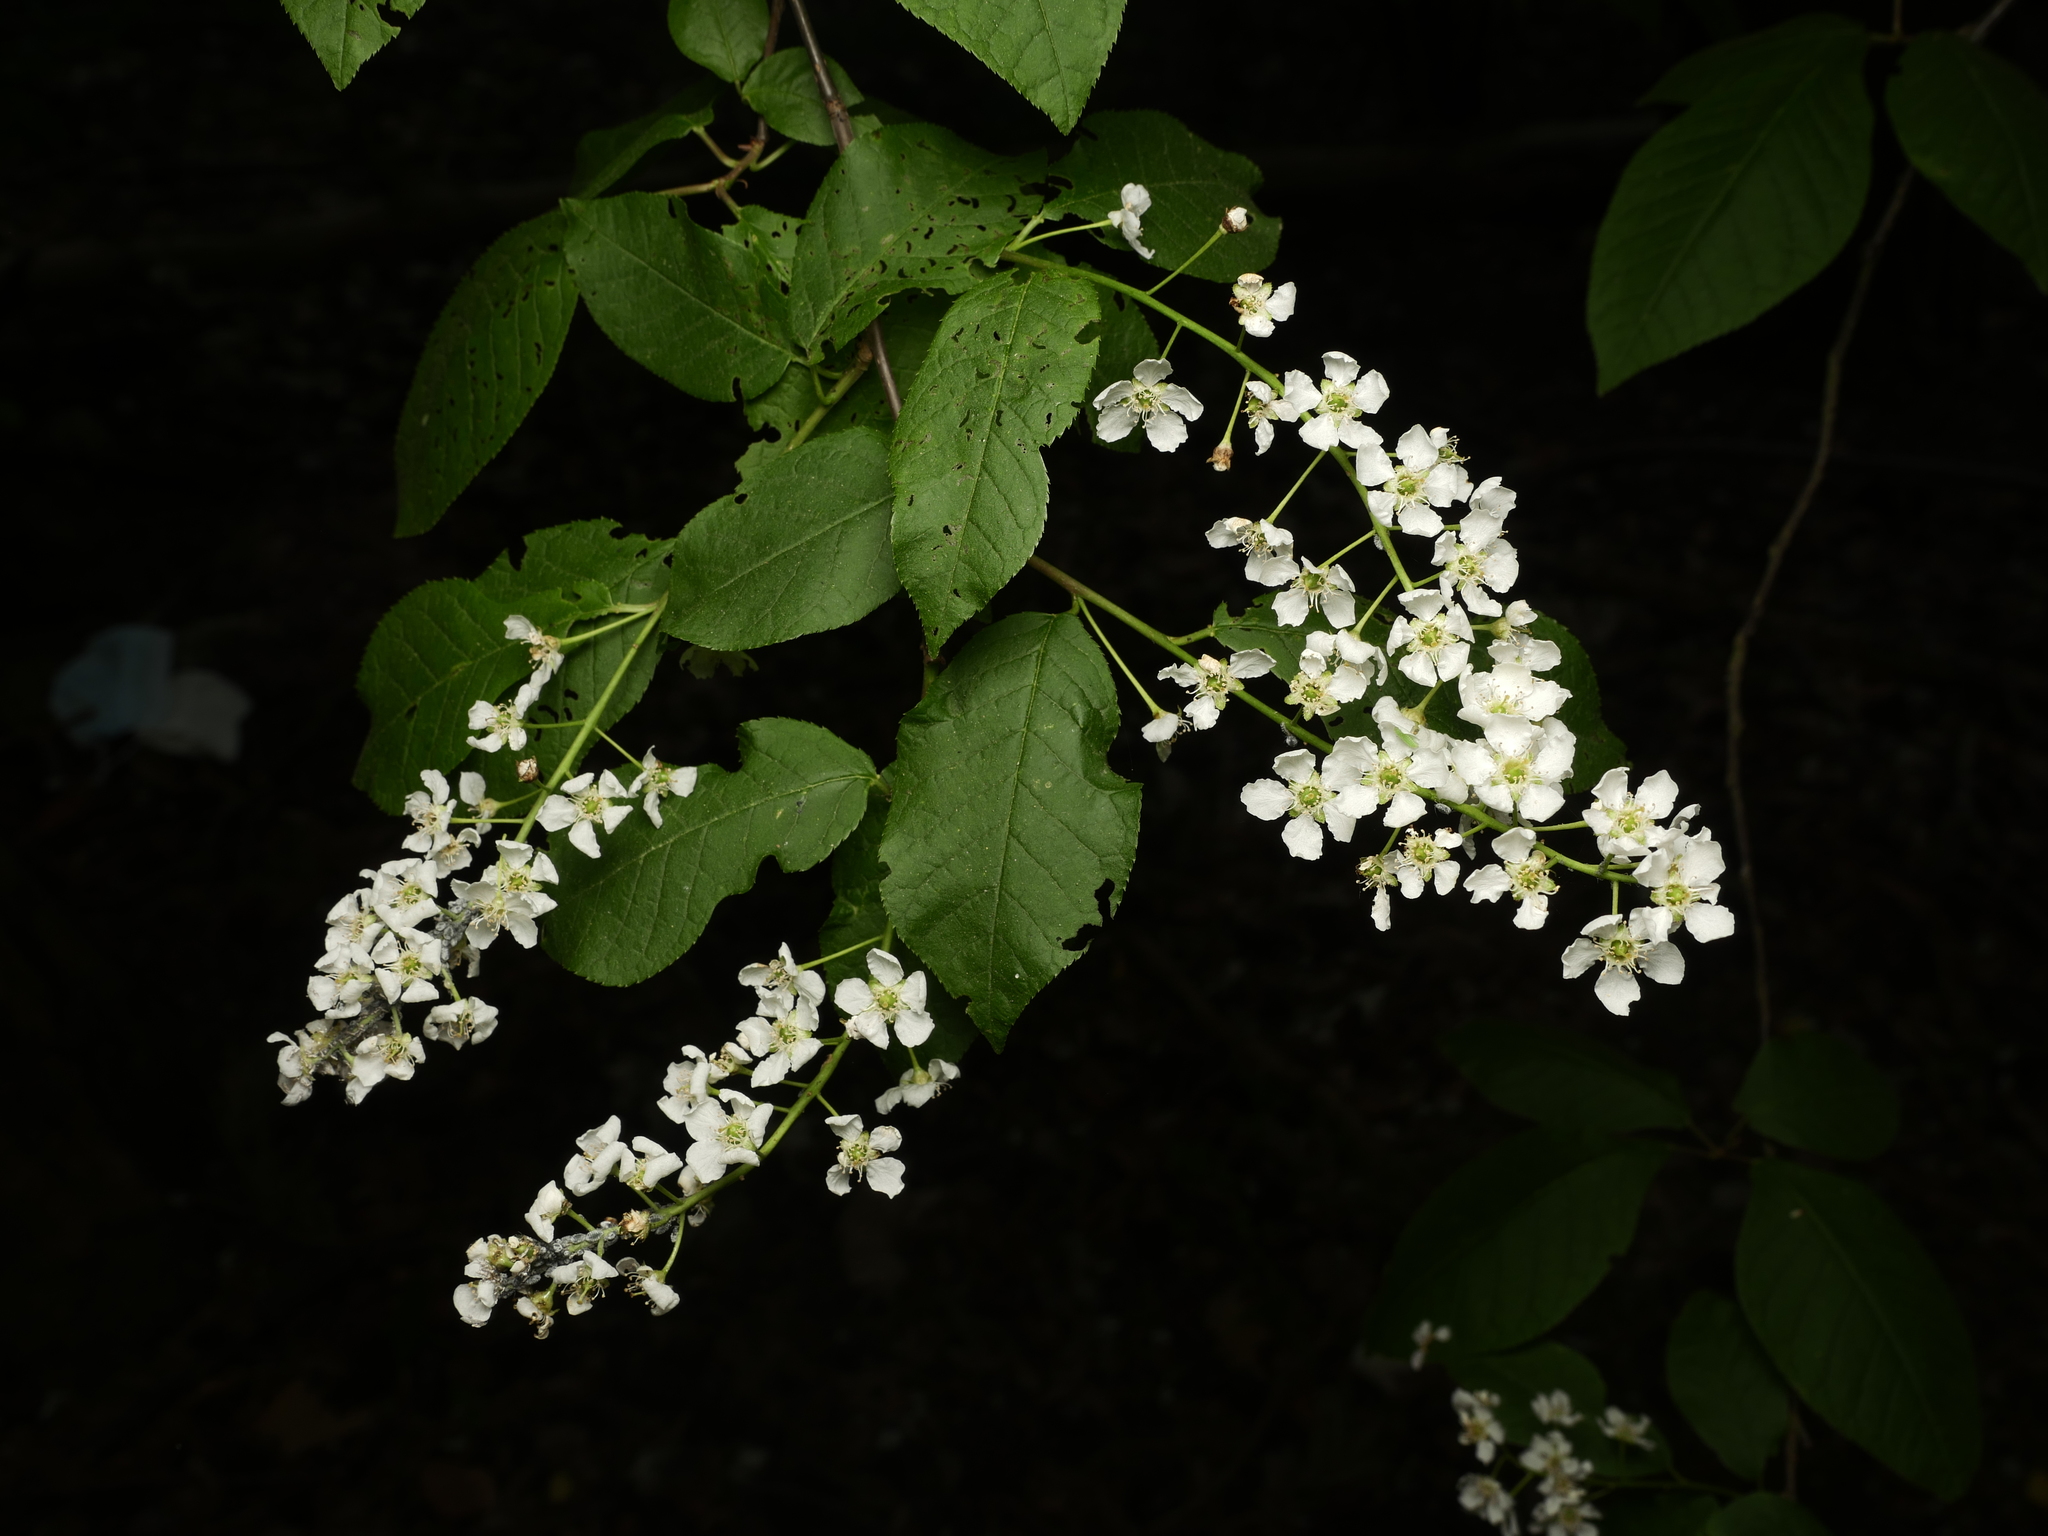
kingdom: Plantae
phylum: Tracheophyta
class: Magnoliopsida
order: Rosales
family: Rosaceae
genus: Prunus
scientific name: Prunus padus
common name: Bird cherry
